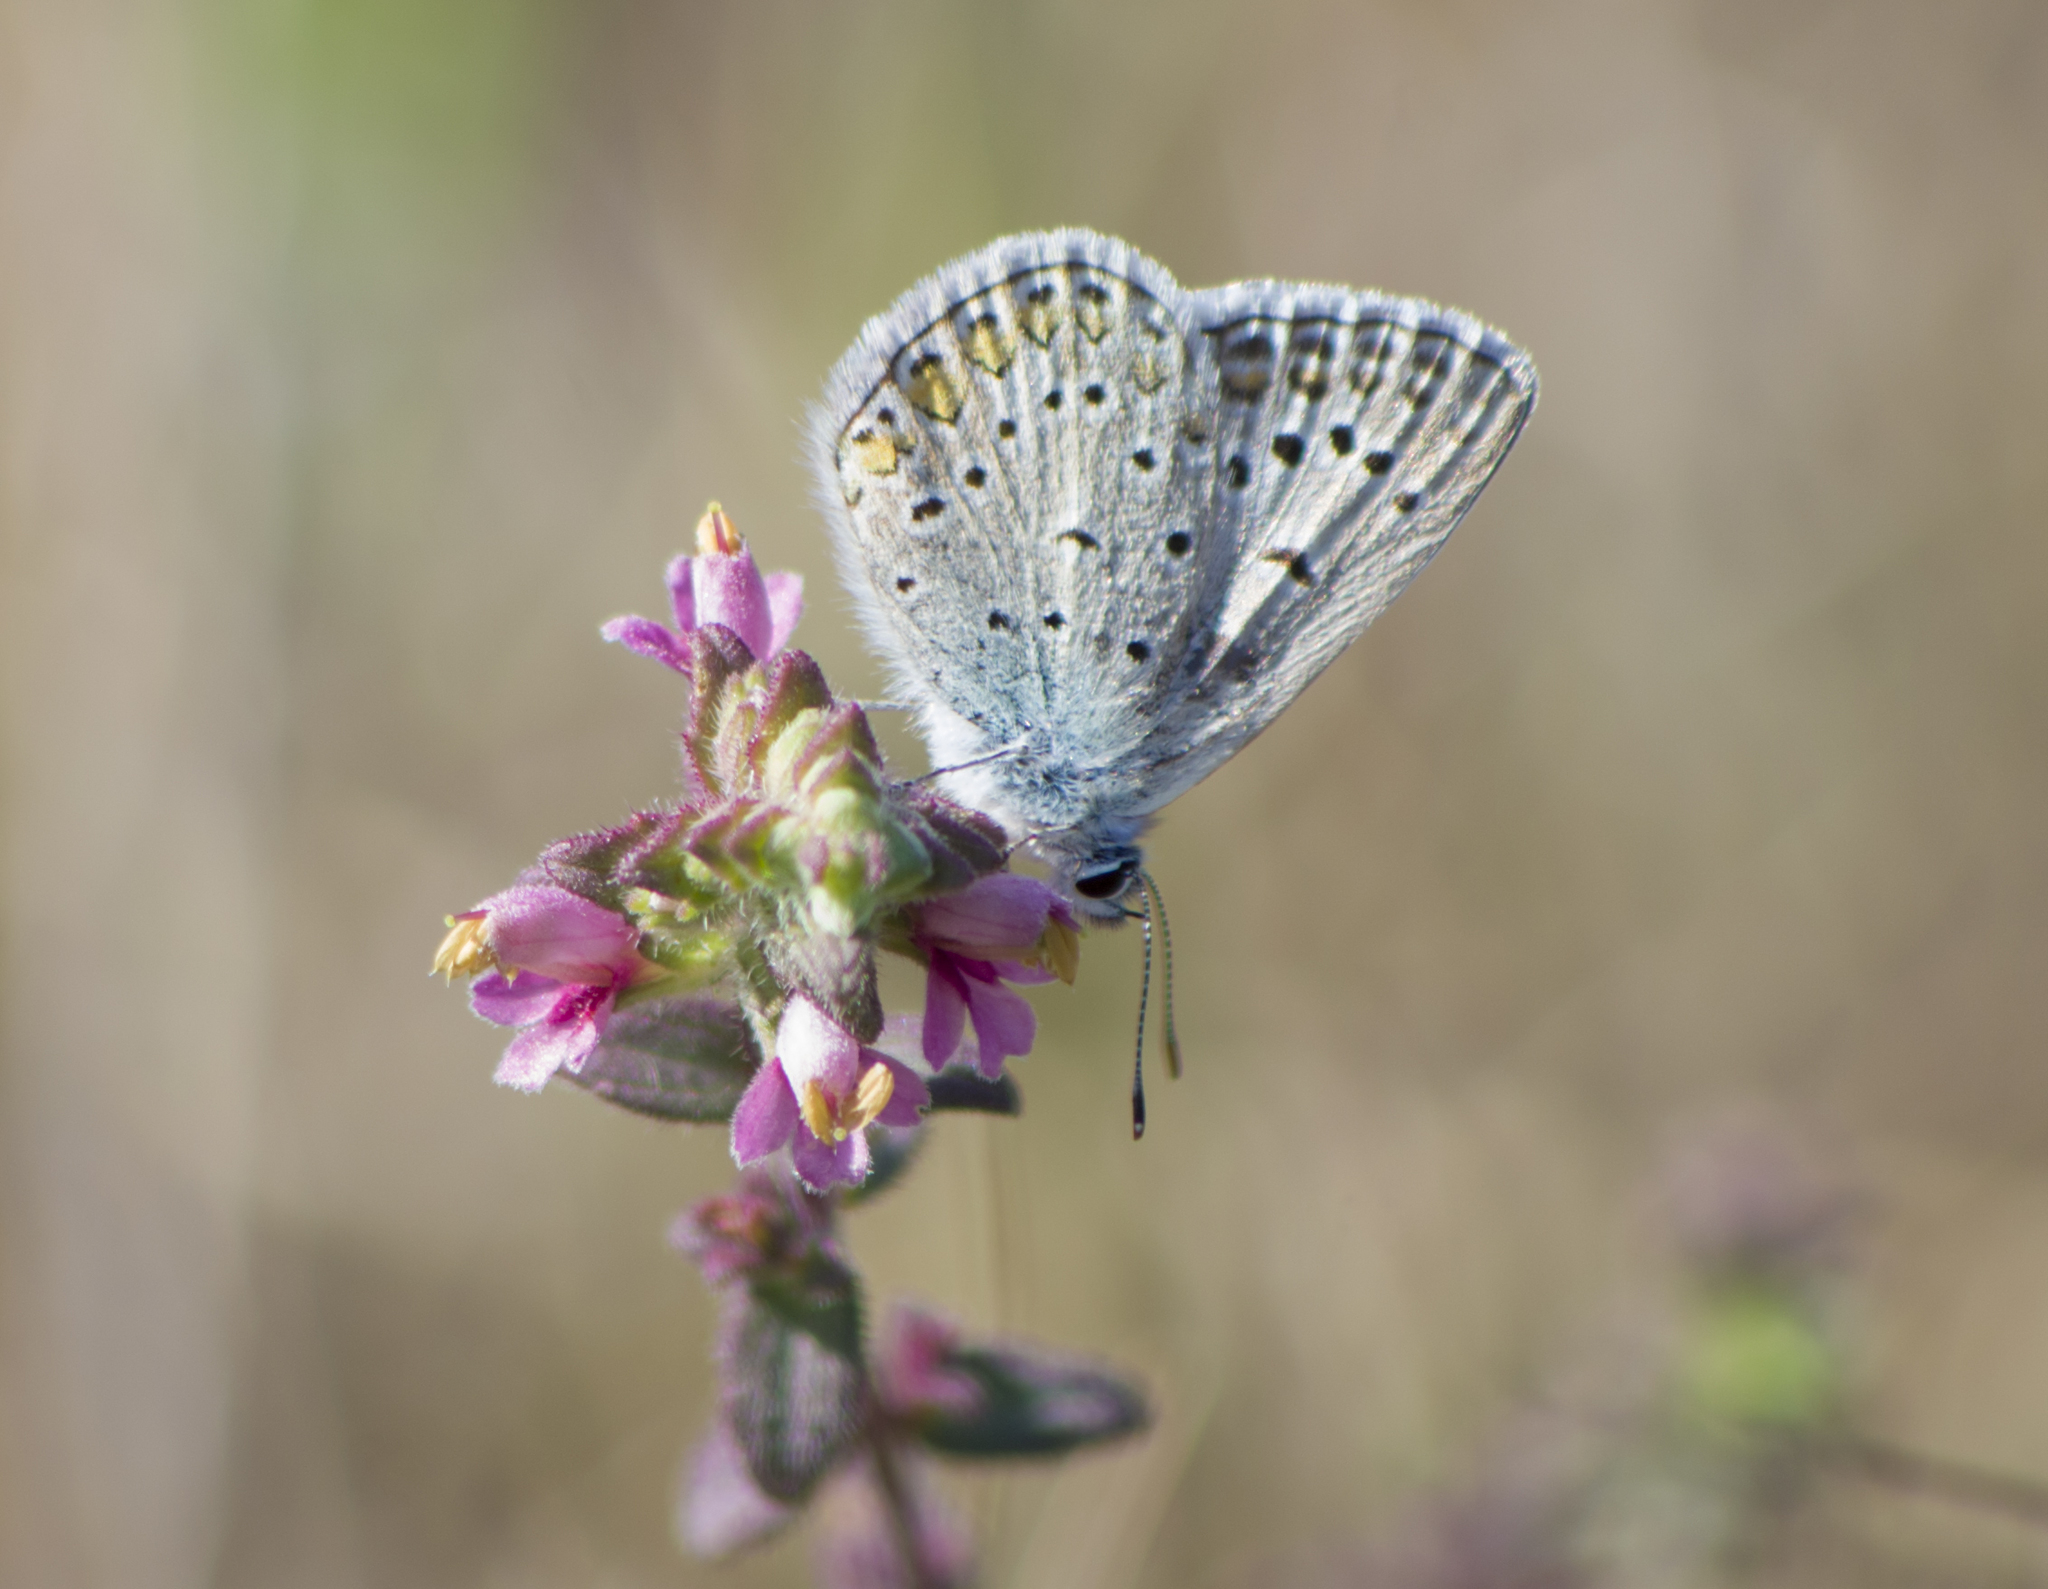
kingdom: Animalia
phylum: Arthropoda
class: Insecta
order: Lepidoptera
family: Lycaenidae
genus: Polyommatus
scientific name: Polyommatus icarus
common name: Common blue
